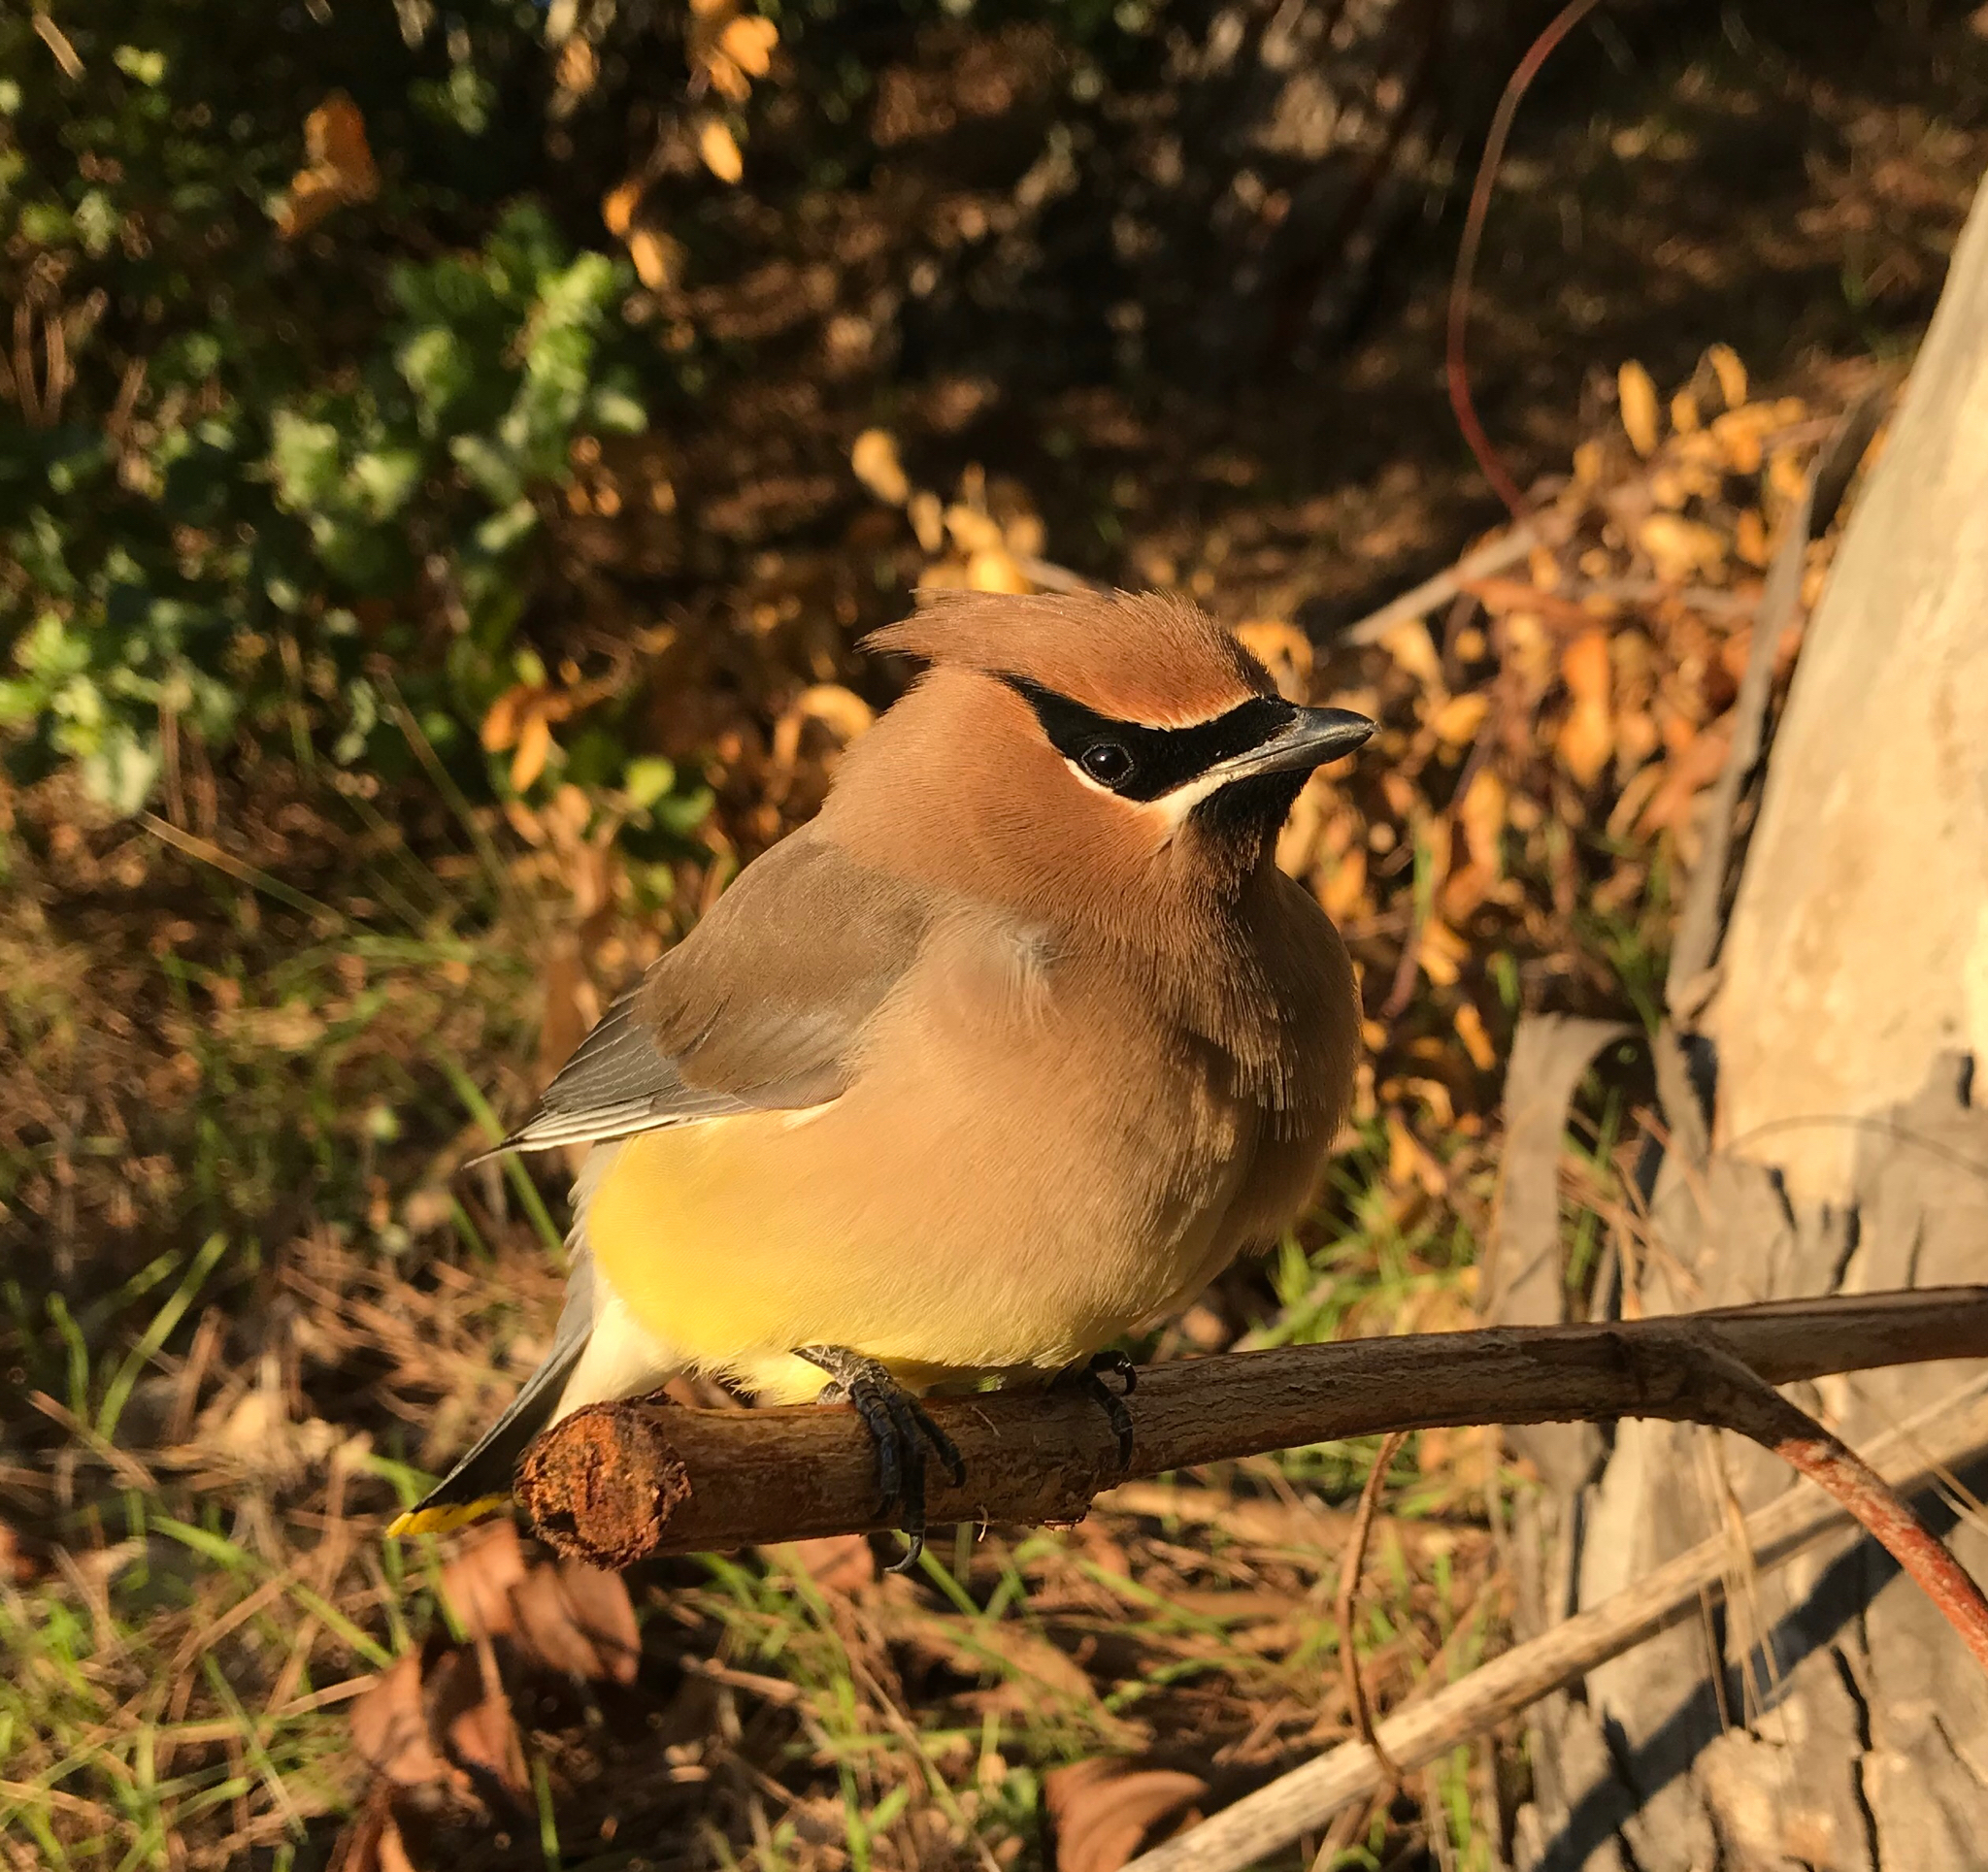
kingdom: Animalia
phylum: Chordata
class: Aves
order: Passeriformes
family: Bombycillidae
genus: Bombycilla
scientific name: Bombycilla cedrorum
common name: Cedar waxwing
